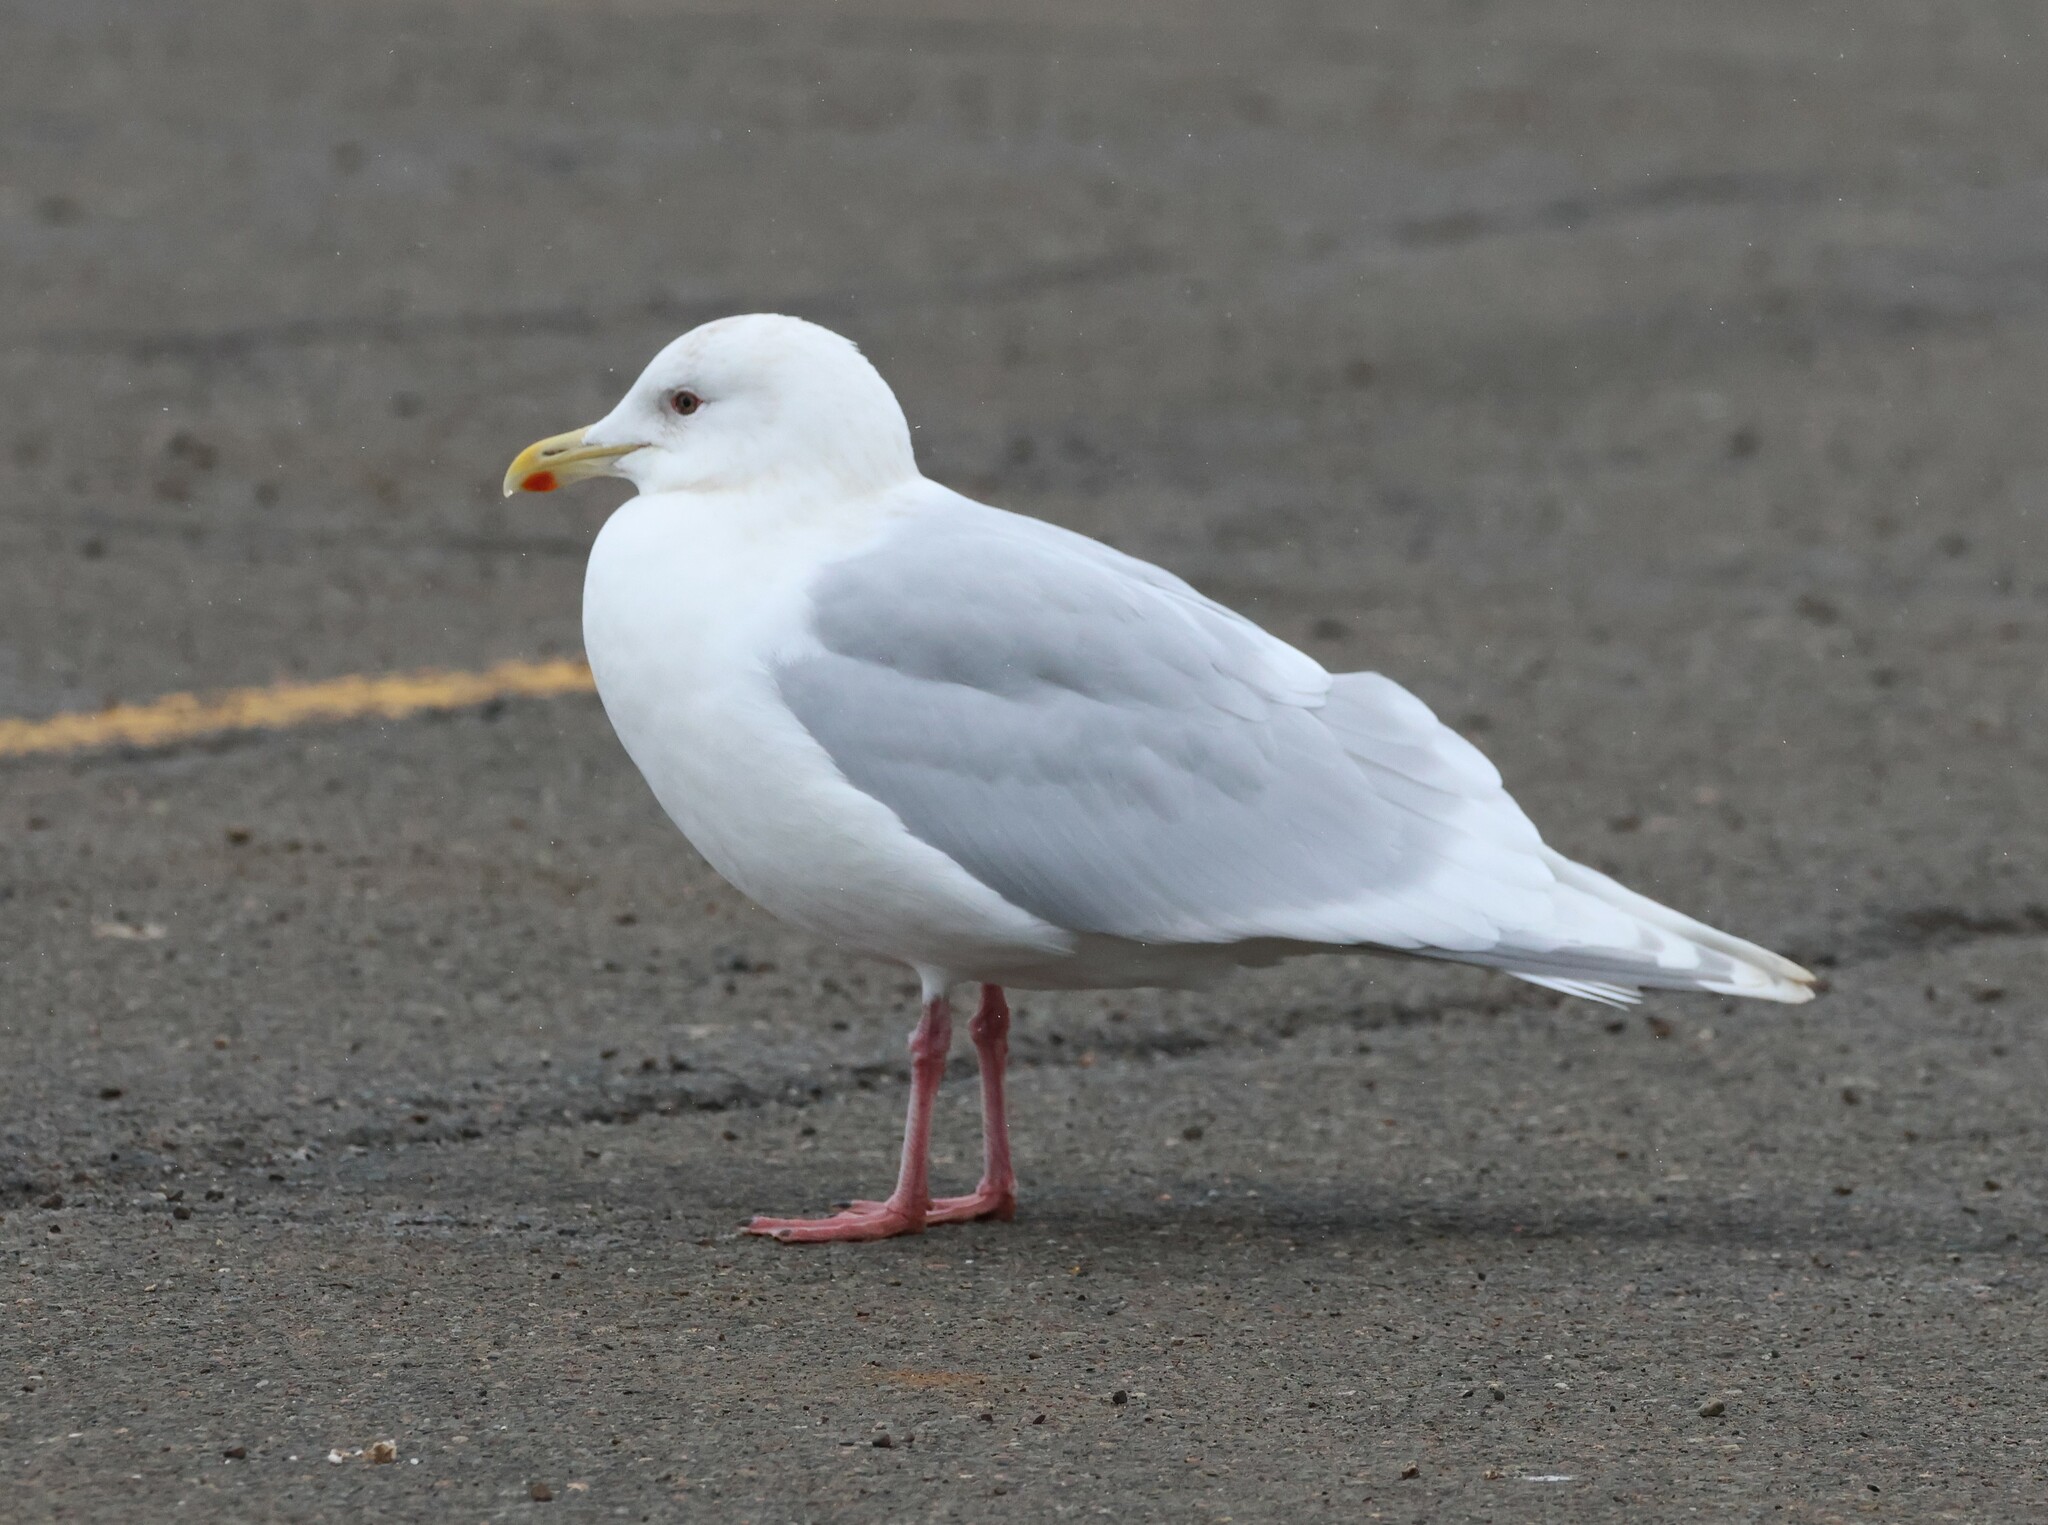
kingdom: Animalia
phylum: Chordata
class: Aves
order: Charadriiformes
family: Laridae
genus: Larus
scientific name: Larus glaucoides
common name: Iceland gull
